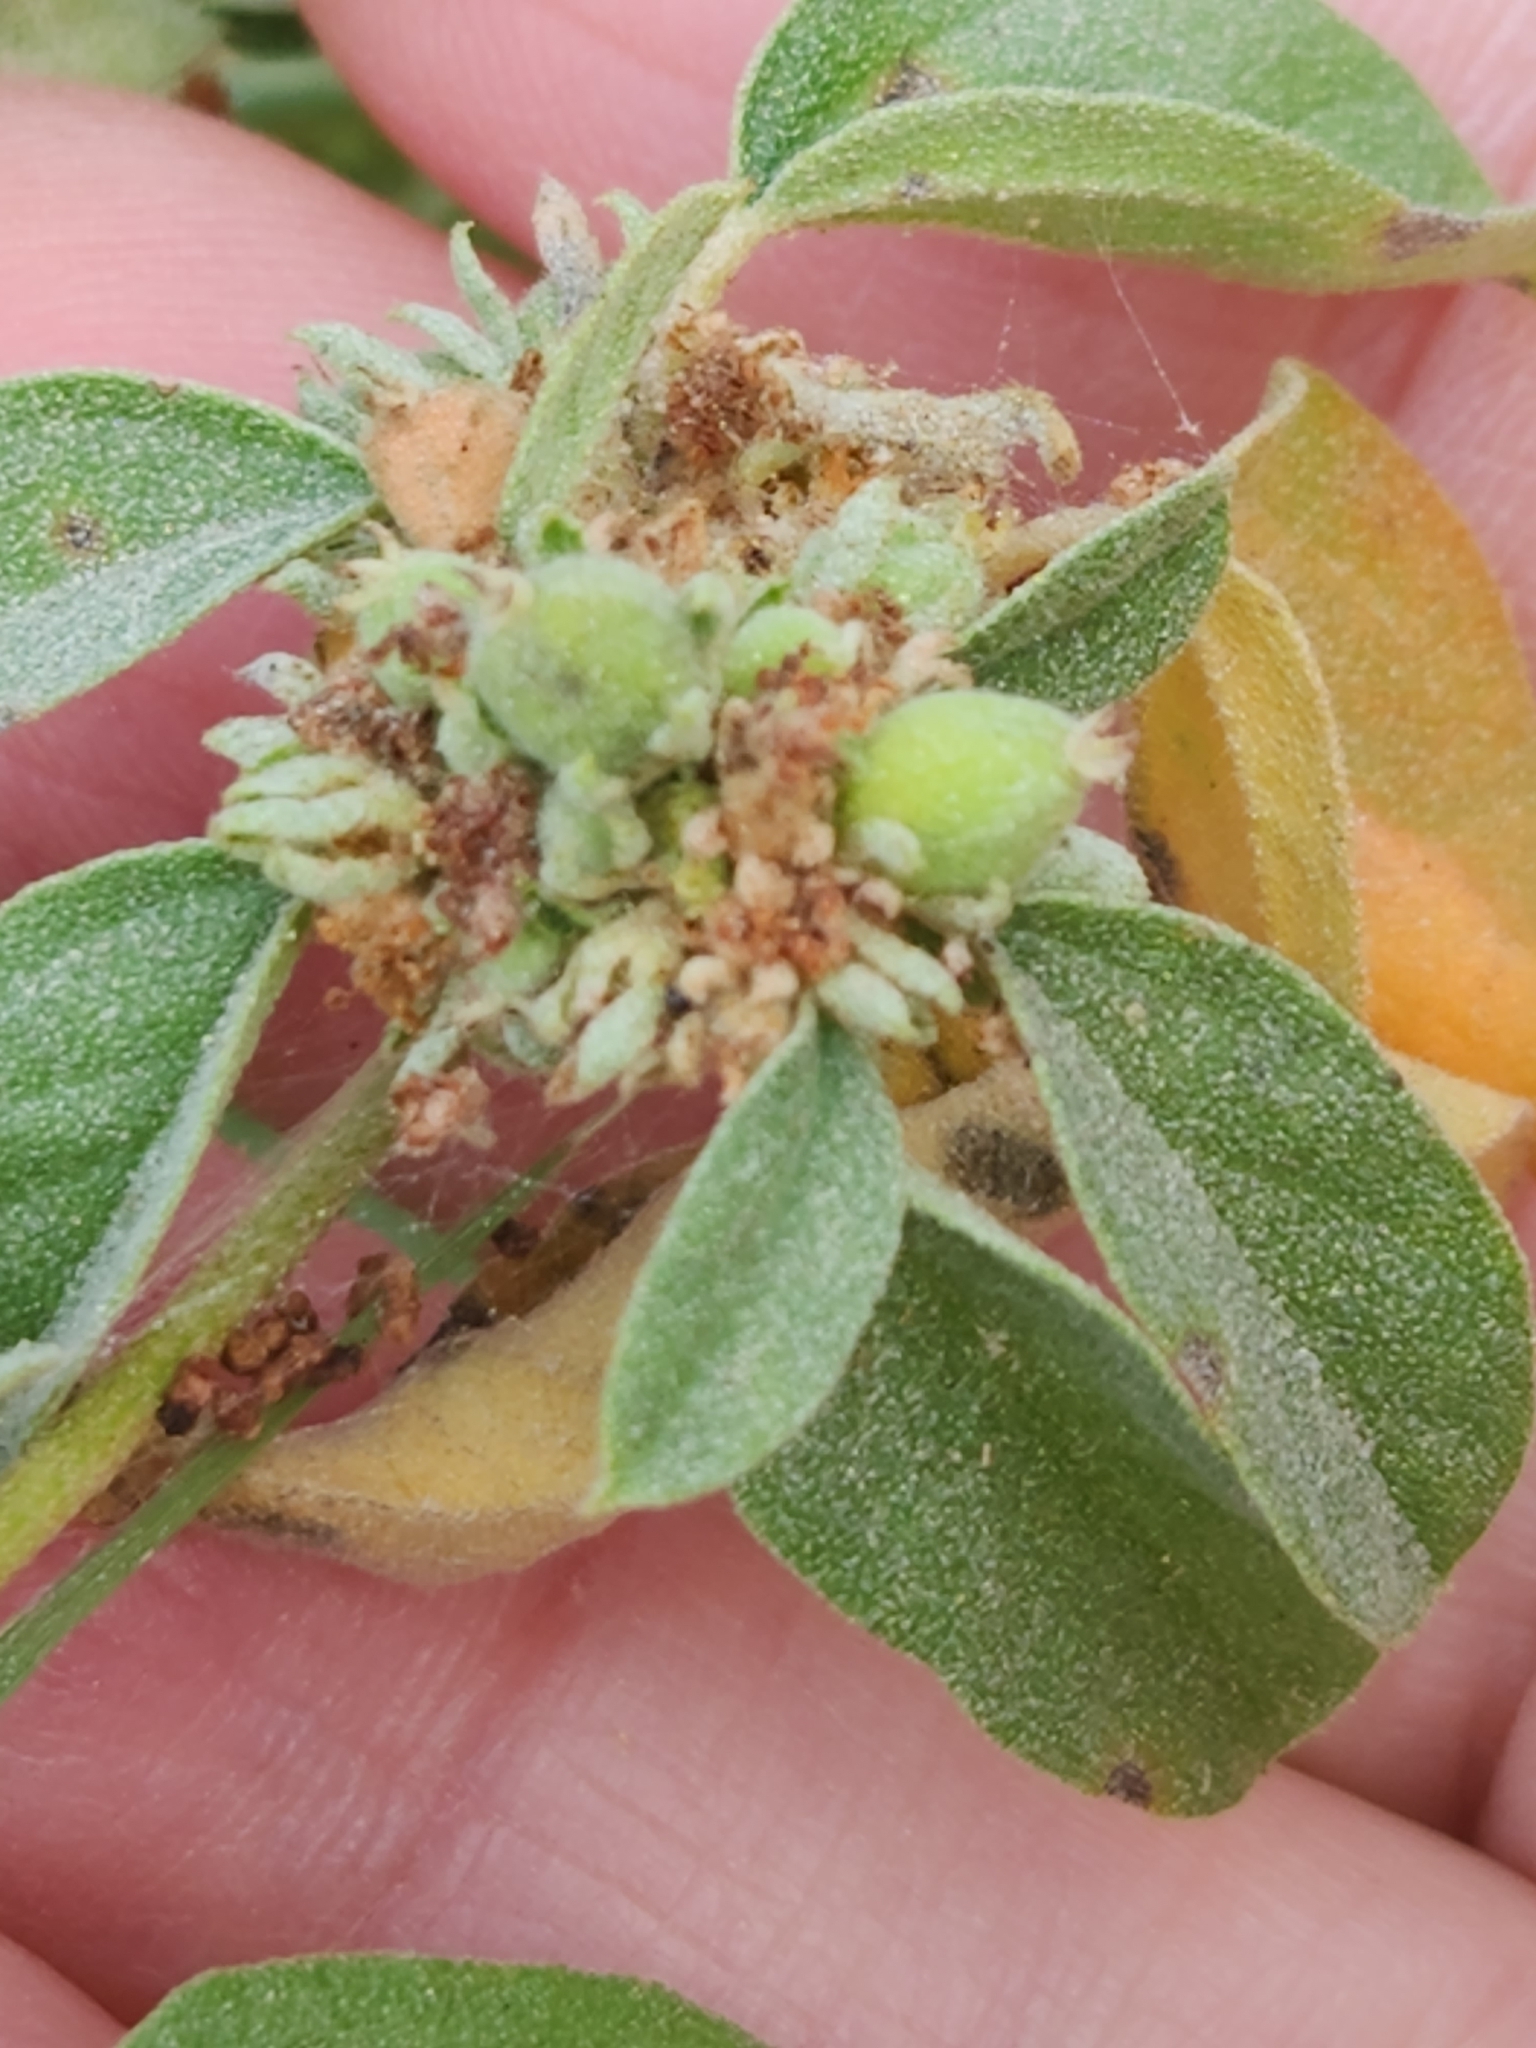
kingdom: Plantae
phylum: Tracheophyta
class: Magnoliopsida
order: Malpighiales
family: Euphorbiaceae
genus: Croton
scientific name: Croton monanthogynus
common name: One-seed croton
